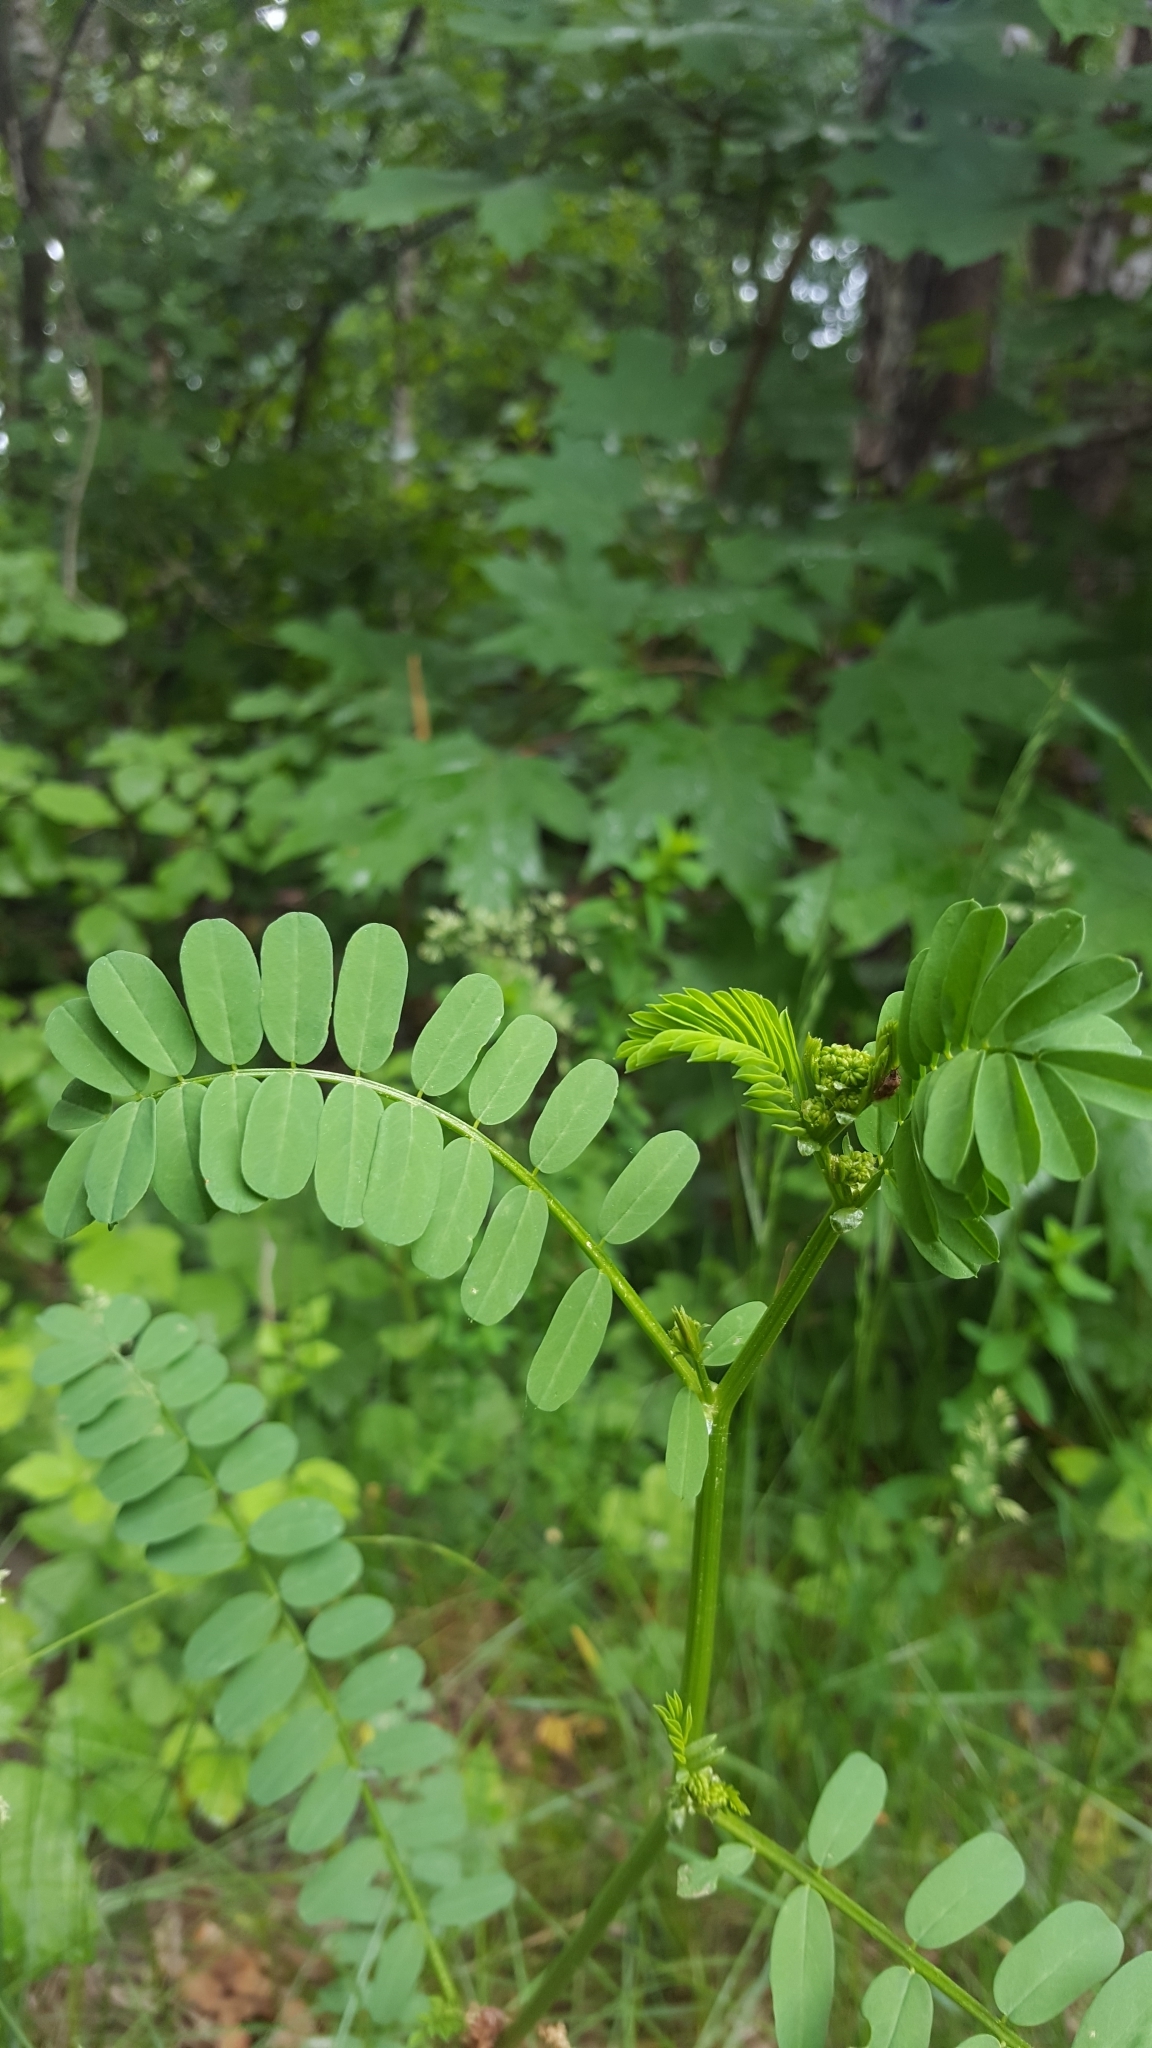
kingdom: Plantae
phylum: Tracheophyta
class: Magnoliopsida
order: Fabales
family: Fabaceae
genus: Coronilla
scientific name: Coronilla varia
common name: Crownvetch
